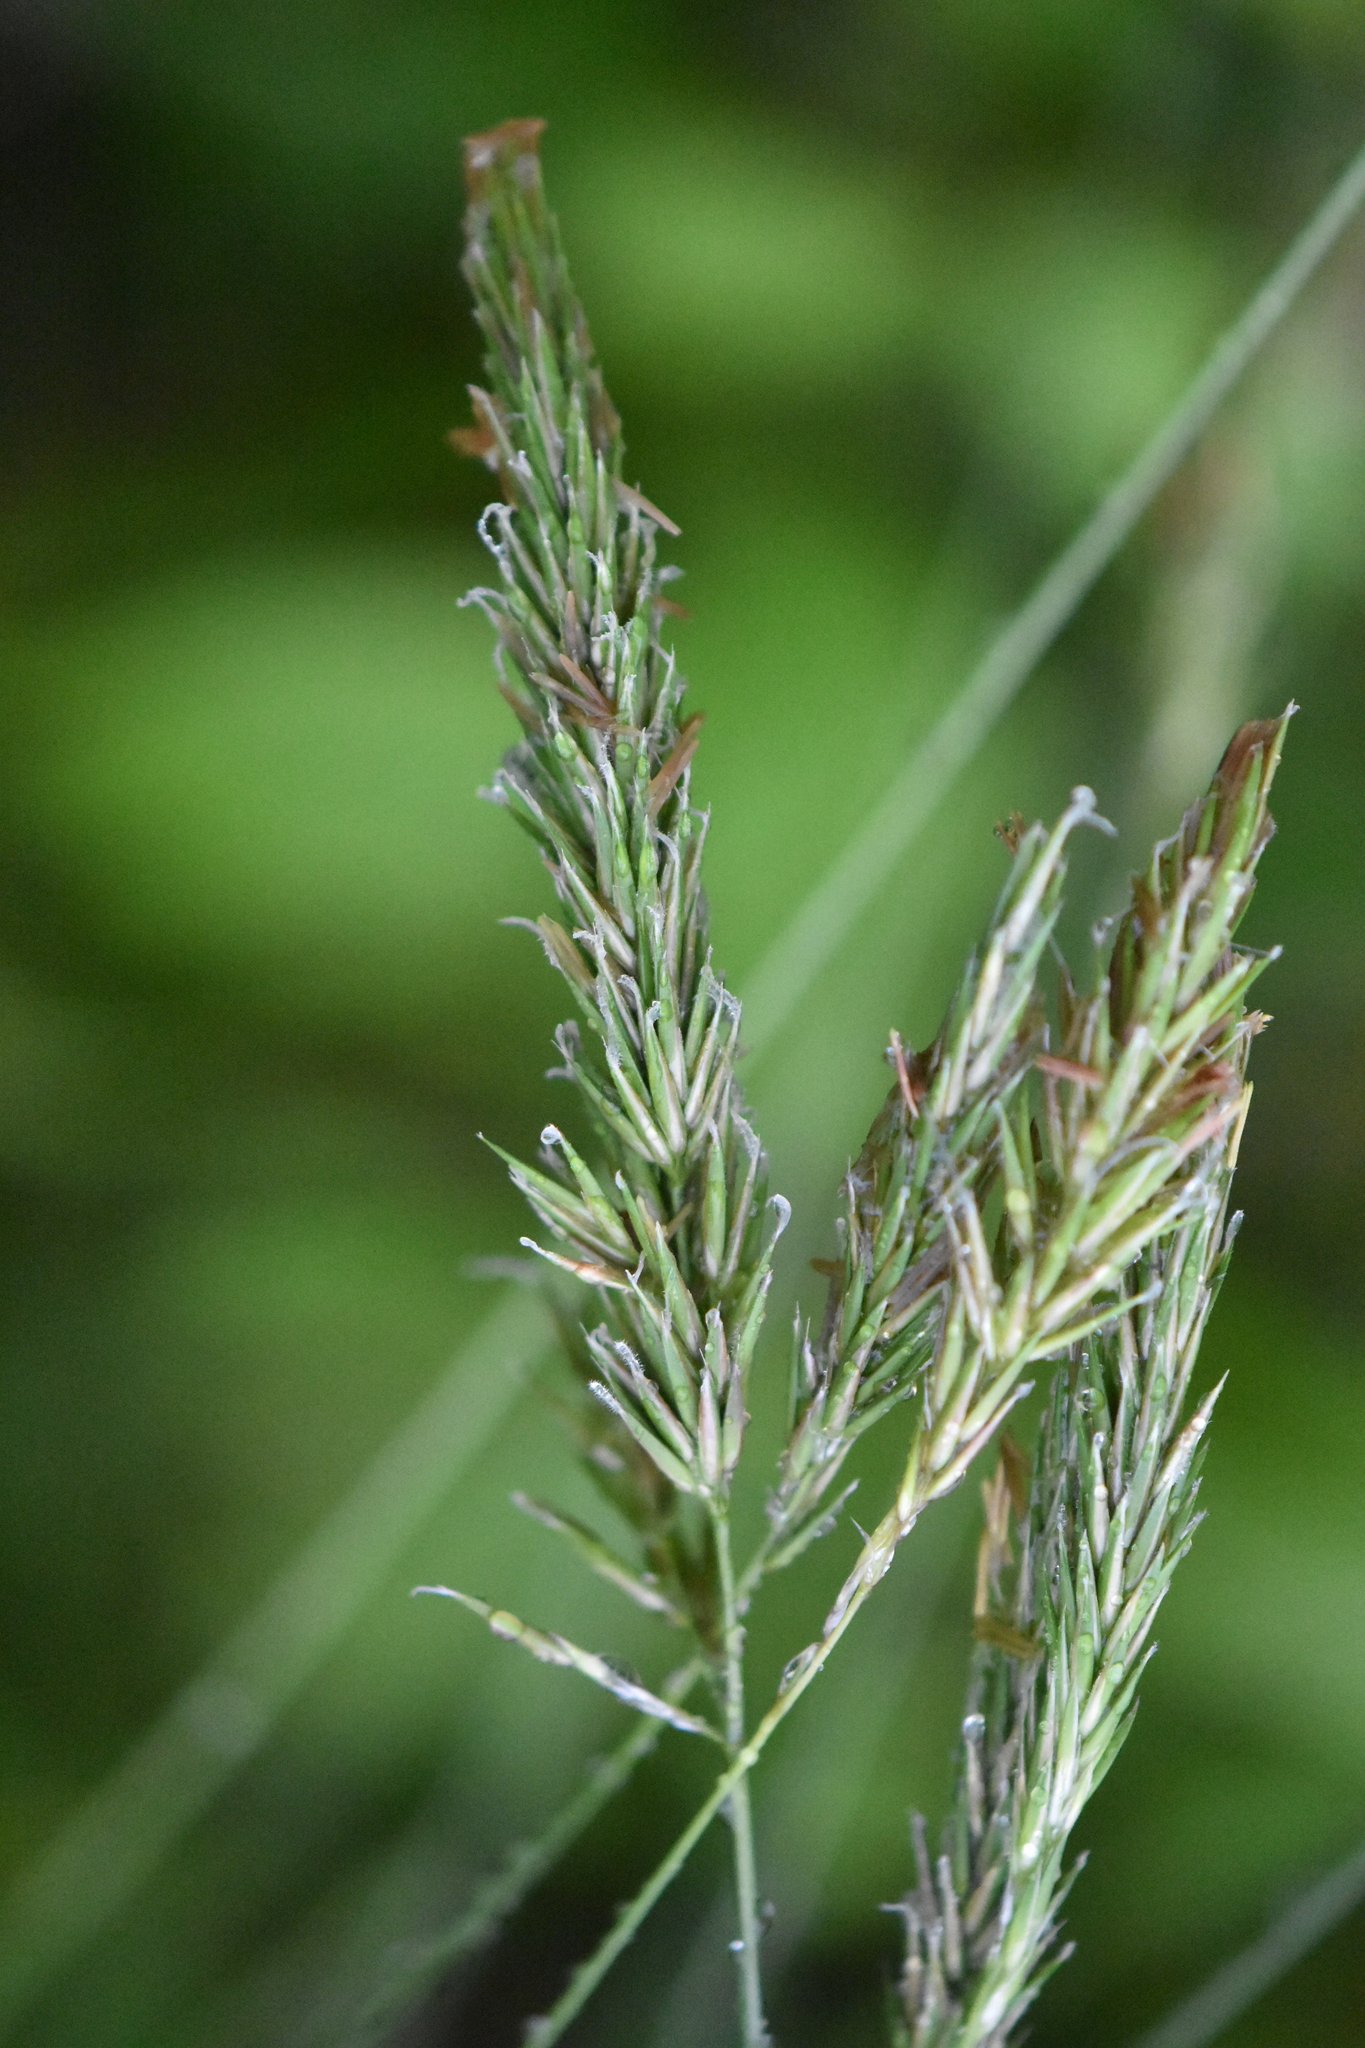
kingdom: Plantae
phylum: Tracheophyta
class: Liliopsida
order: Poales
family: Poaceae
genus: Anthoxanthum
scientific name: Anthoxanthum odoratum
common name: Sweet vernalgrass
